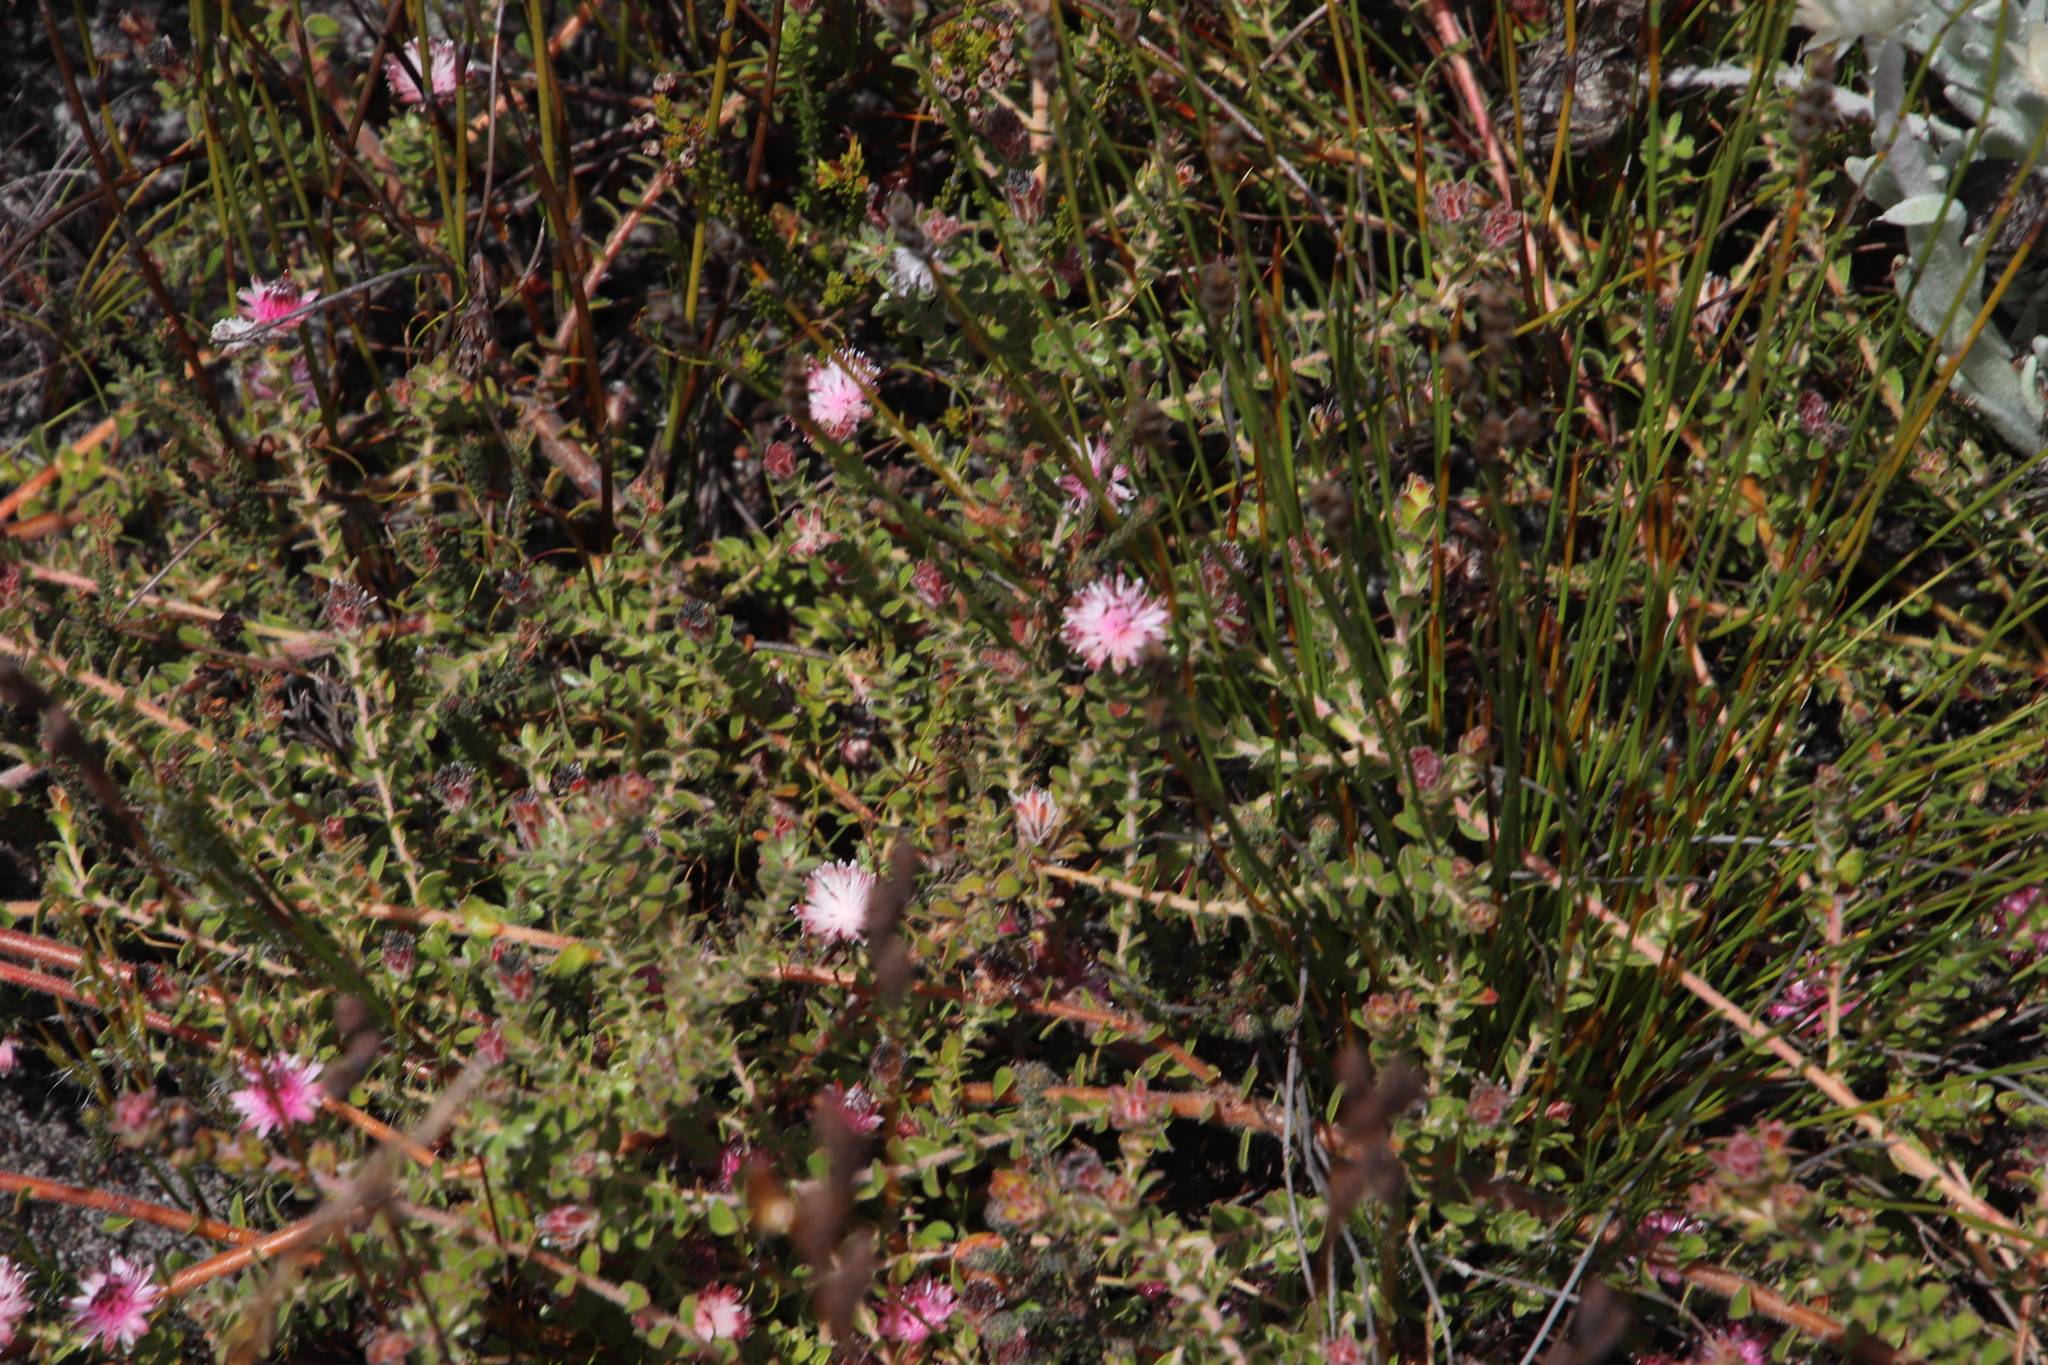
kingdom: Plantae
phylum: Tracheophyta
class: Magnoliopsida
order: Proteales
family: Proteaceae
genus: Diastella
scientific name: Diastella divaricata
